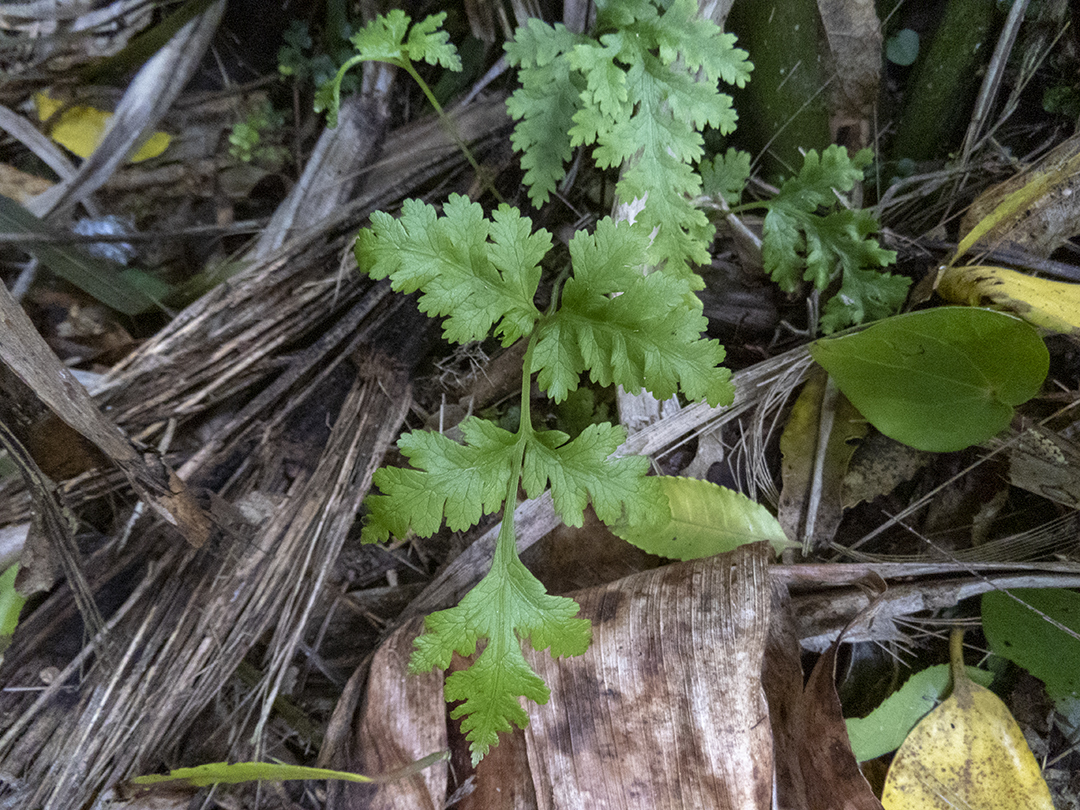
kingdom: Plantae
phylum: Tracheophyta
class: Polypodiopsida
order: Polypodiales
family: Pteridaceae
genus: Pteris
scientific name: Pteris macilenta
